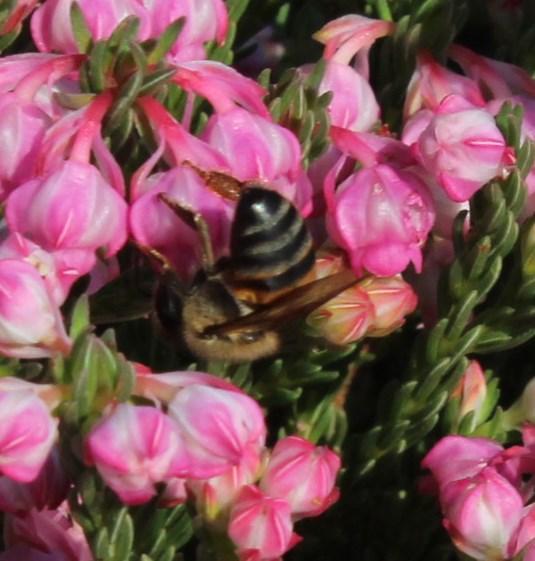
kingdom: Animalia
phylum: Arthropoda
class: Insecta
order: Hymenoptera
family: Apidae
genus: Apis
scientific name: Apis mellifera
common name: Honey bee
